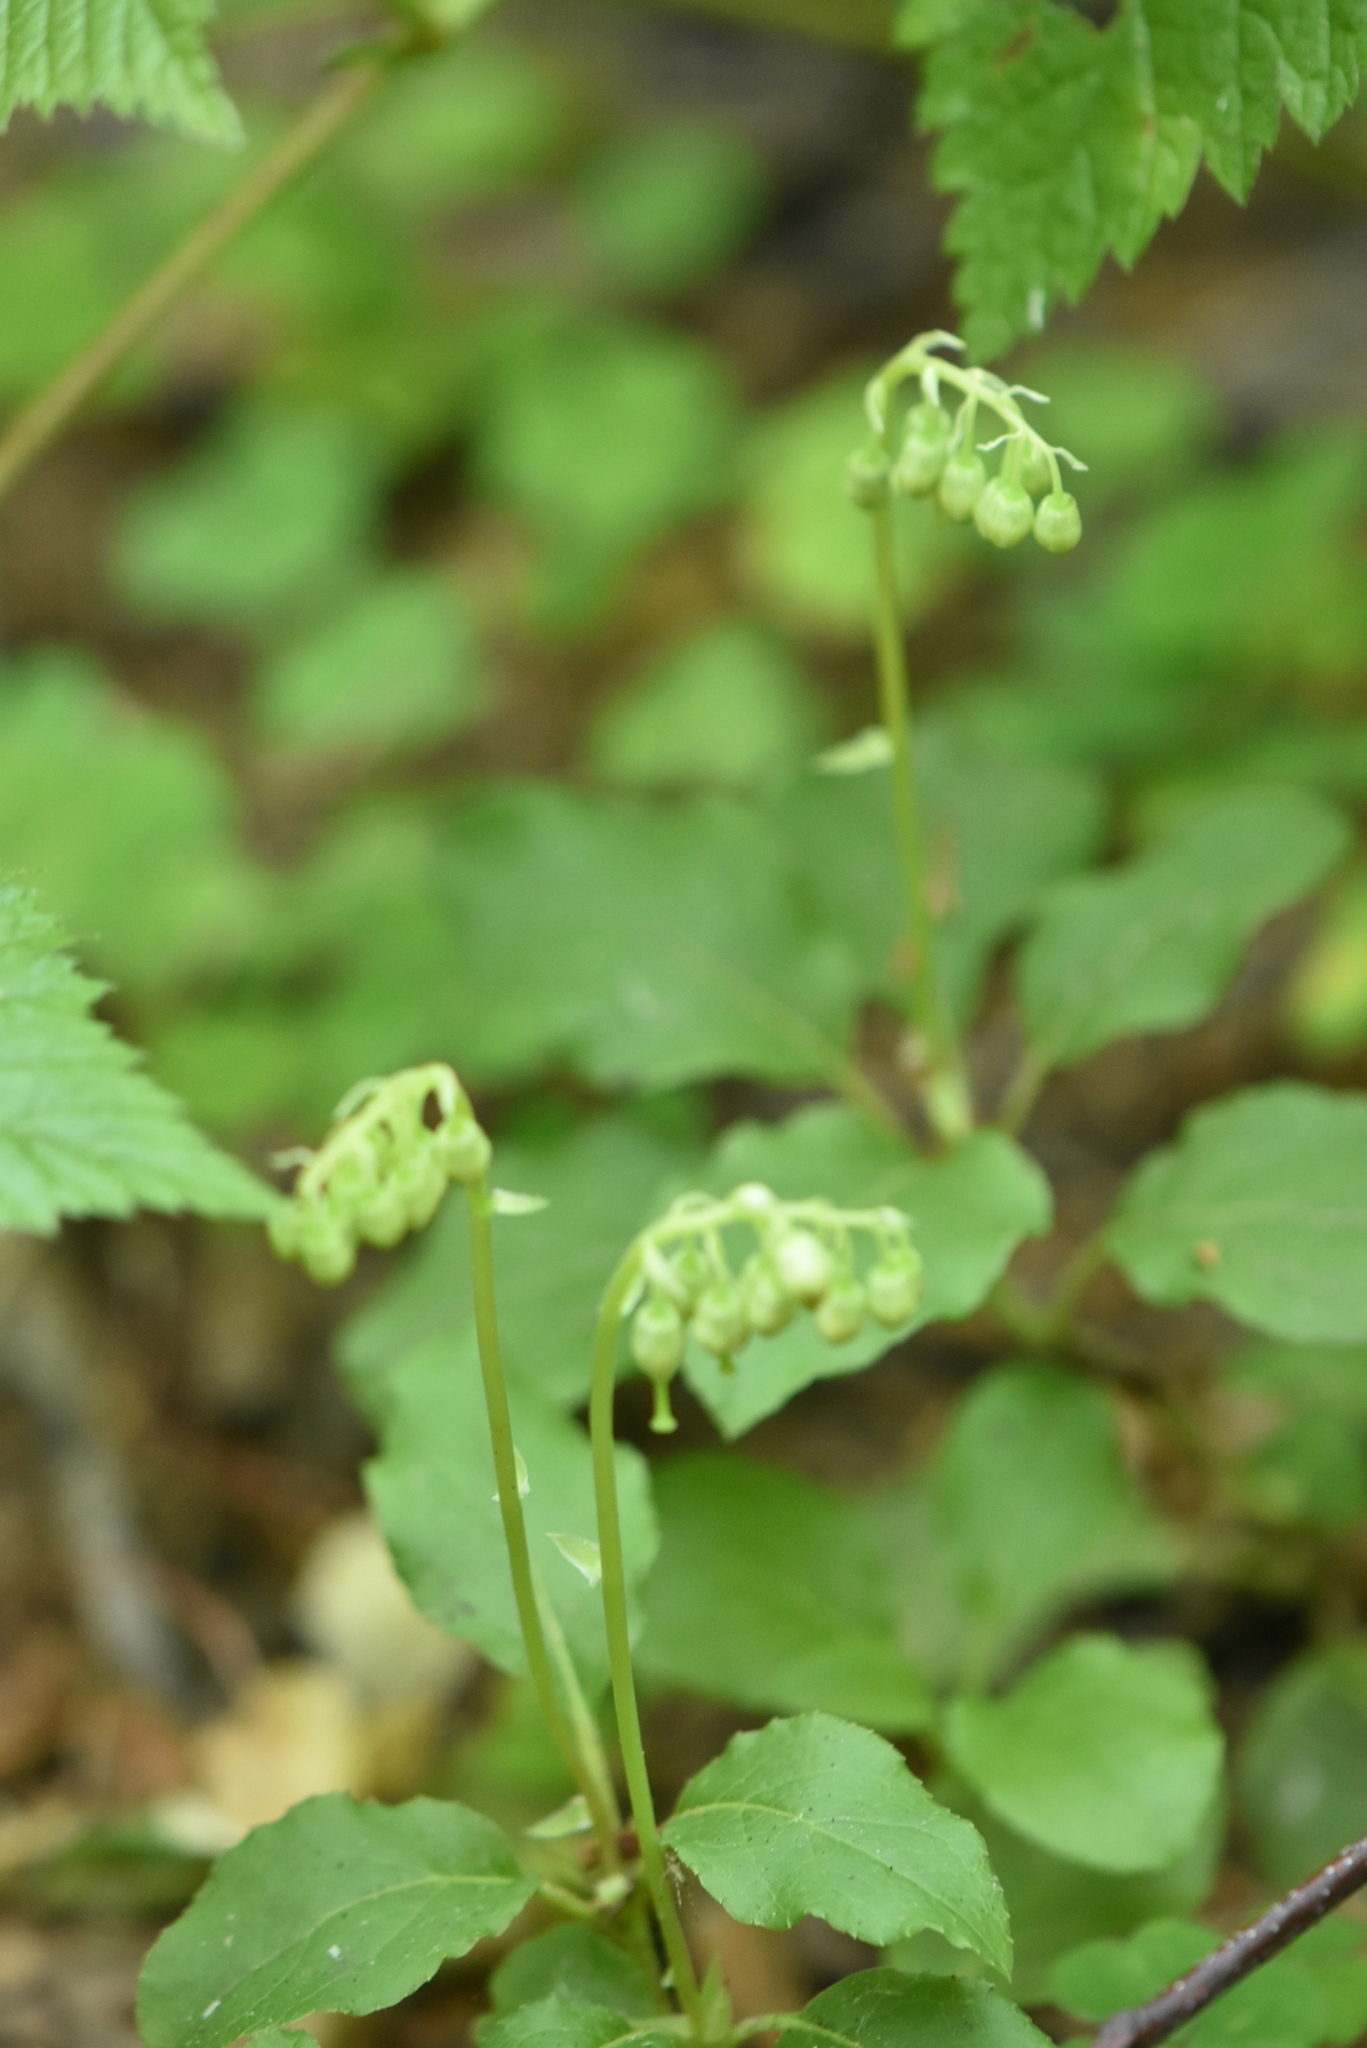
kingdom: Plantae
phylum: Tracheophyta
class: Magnoliopsida
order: Ericales
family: Ericaceae
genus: Orthilia
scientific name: Orthilia secunda
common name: One-sided orthilia
